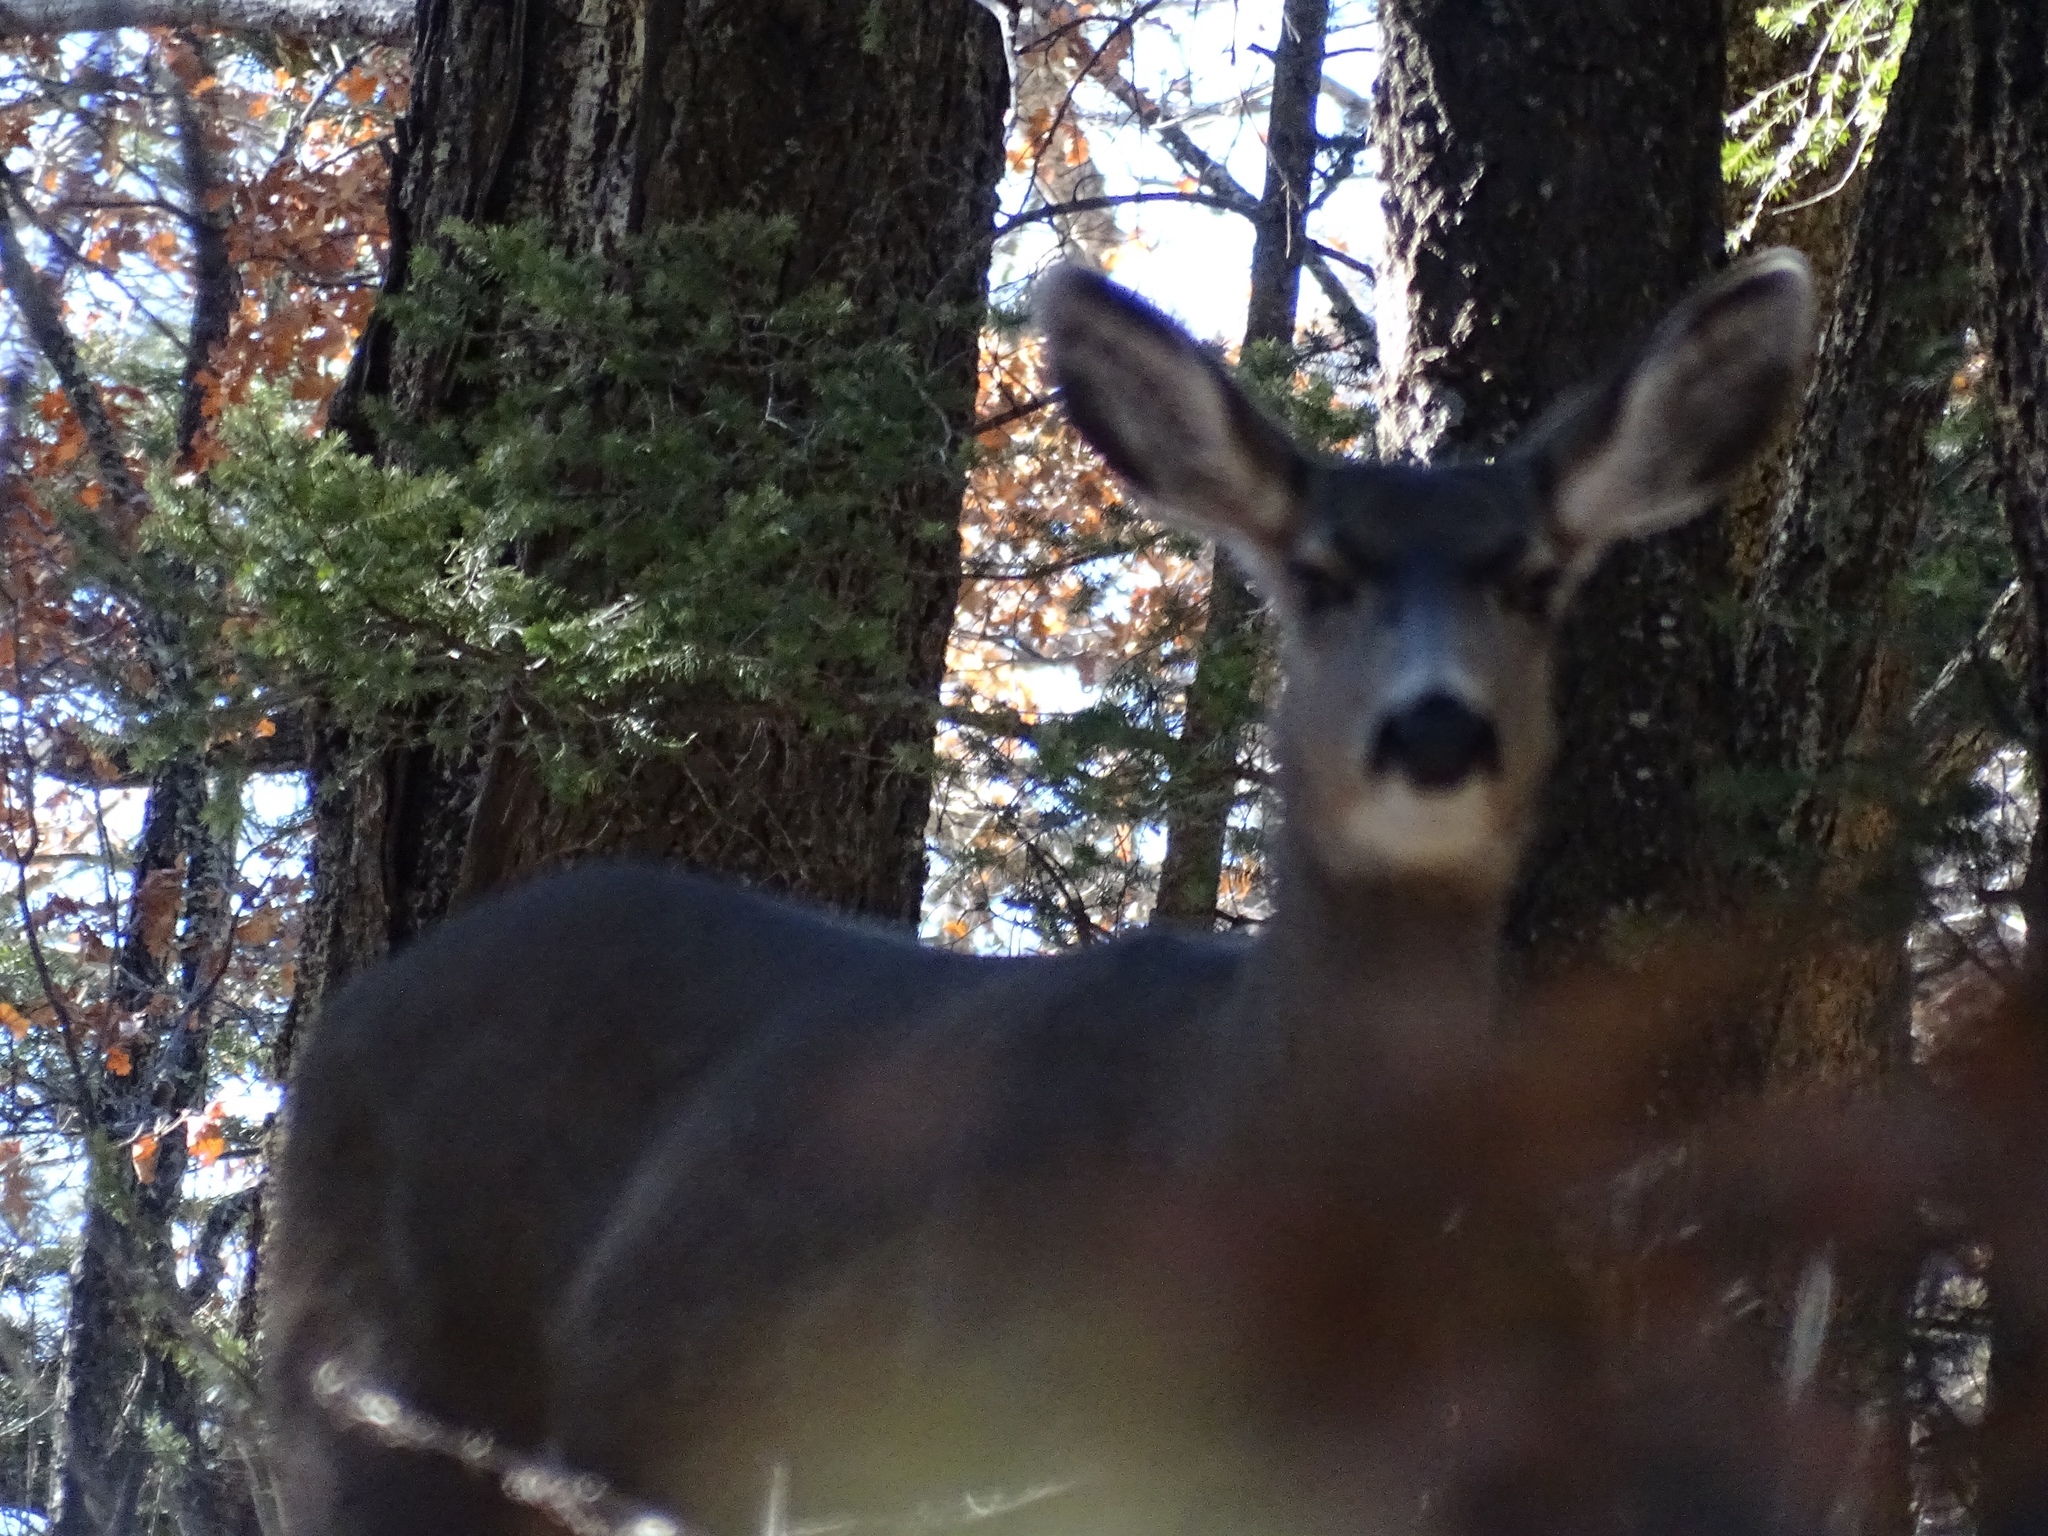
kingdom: Animalia
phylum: Chordata
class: Mammalia
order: Artiodactyla
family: Cervidae
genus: Odocoileus
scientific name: Odocoileus hemionus
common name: Mule deer
